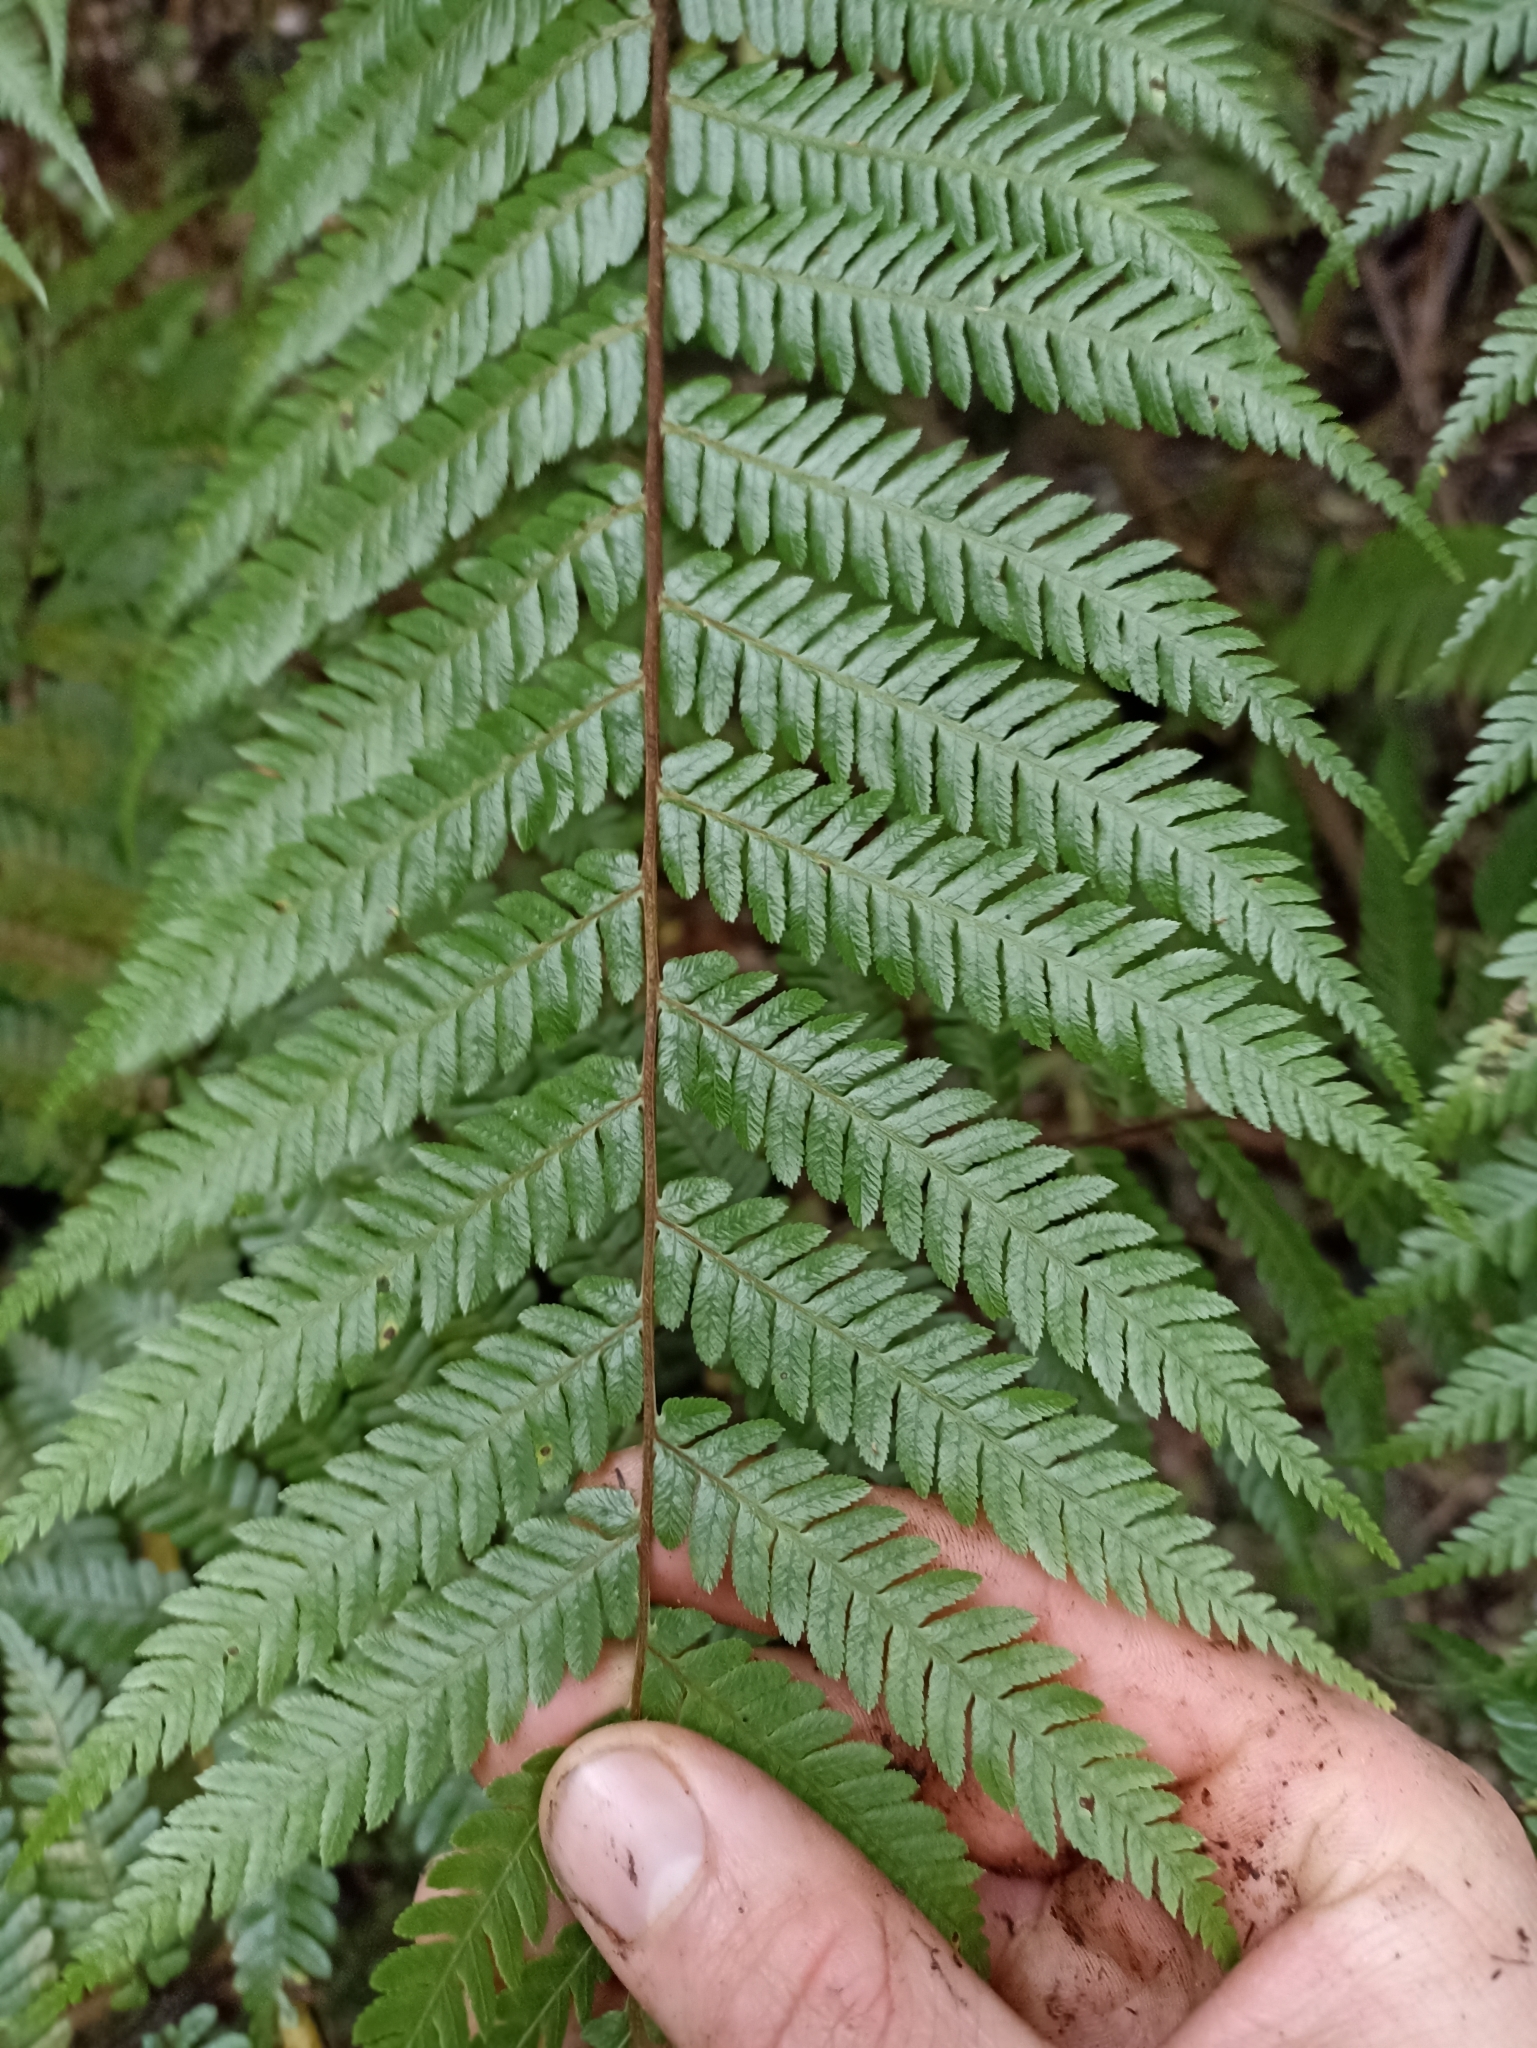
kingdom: Plantae
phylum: Tracheophyta
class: Polypodiopsida
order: Cyatheales
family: Cyatheaceae
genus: Sphaeropteris
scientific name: Sphaeropteris medullaris
